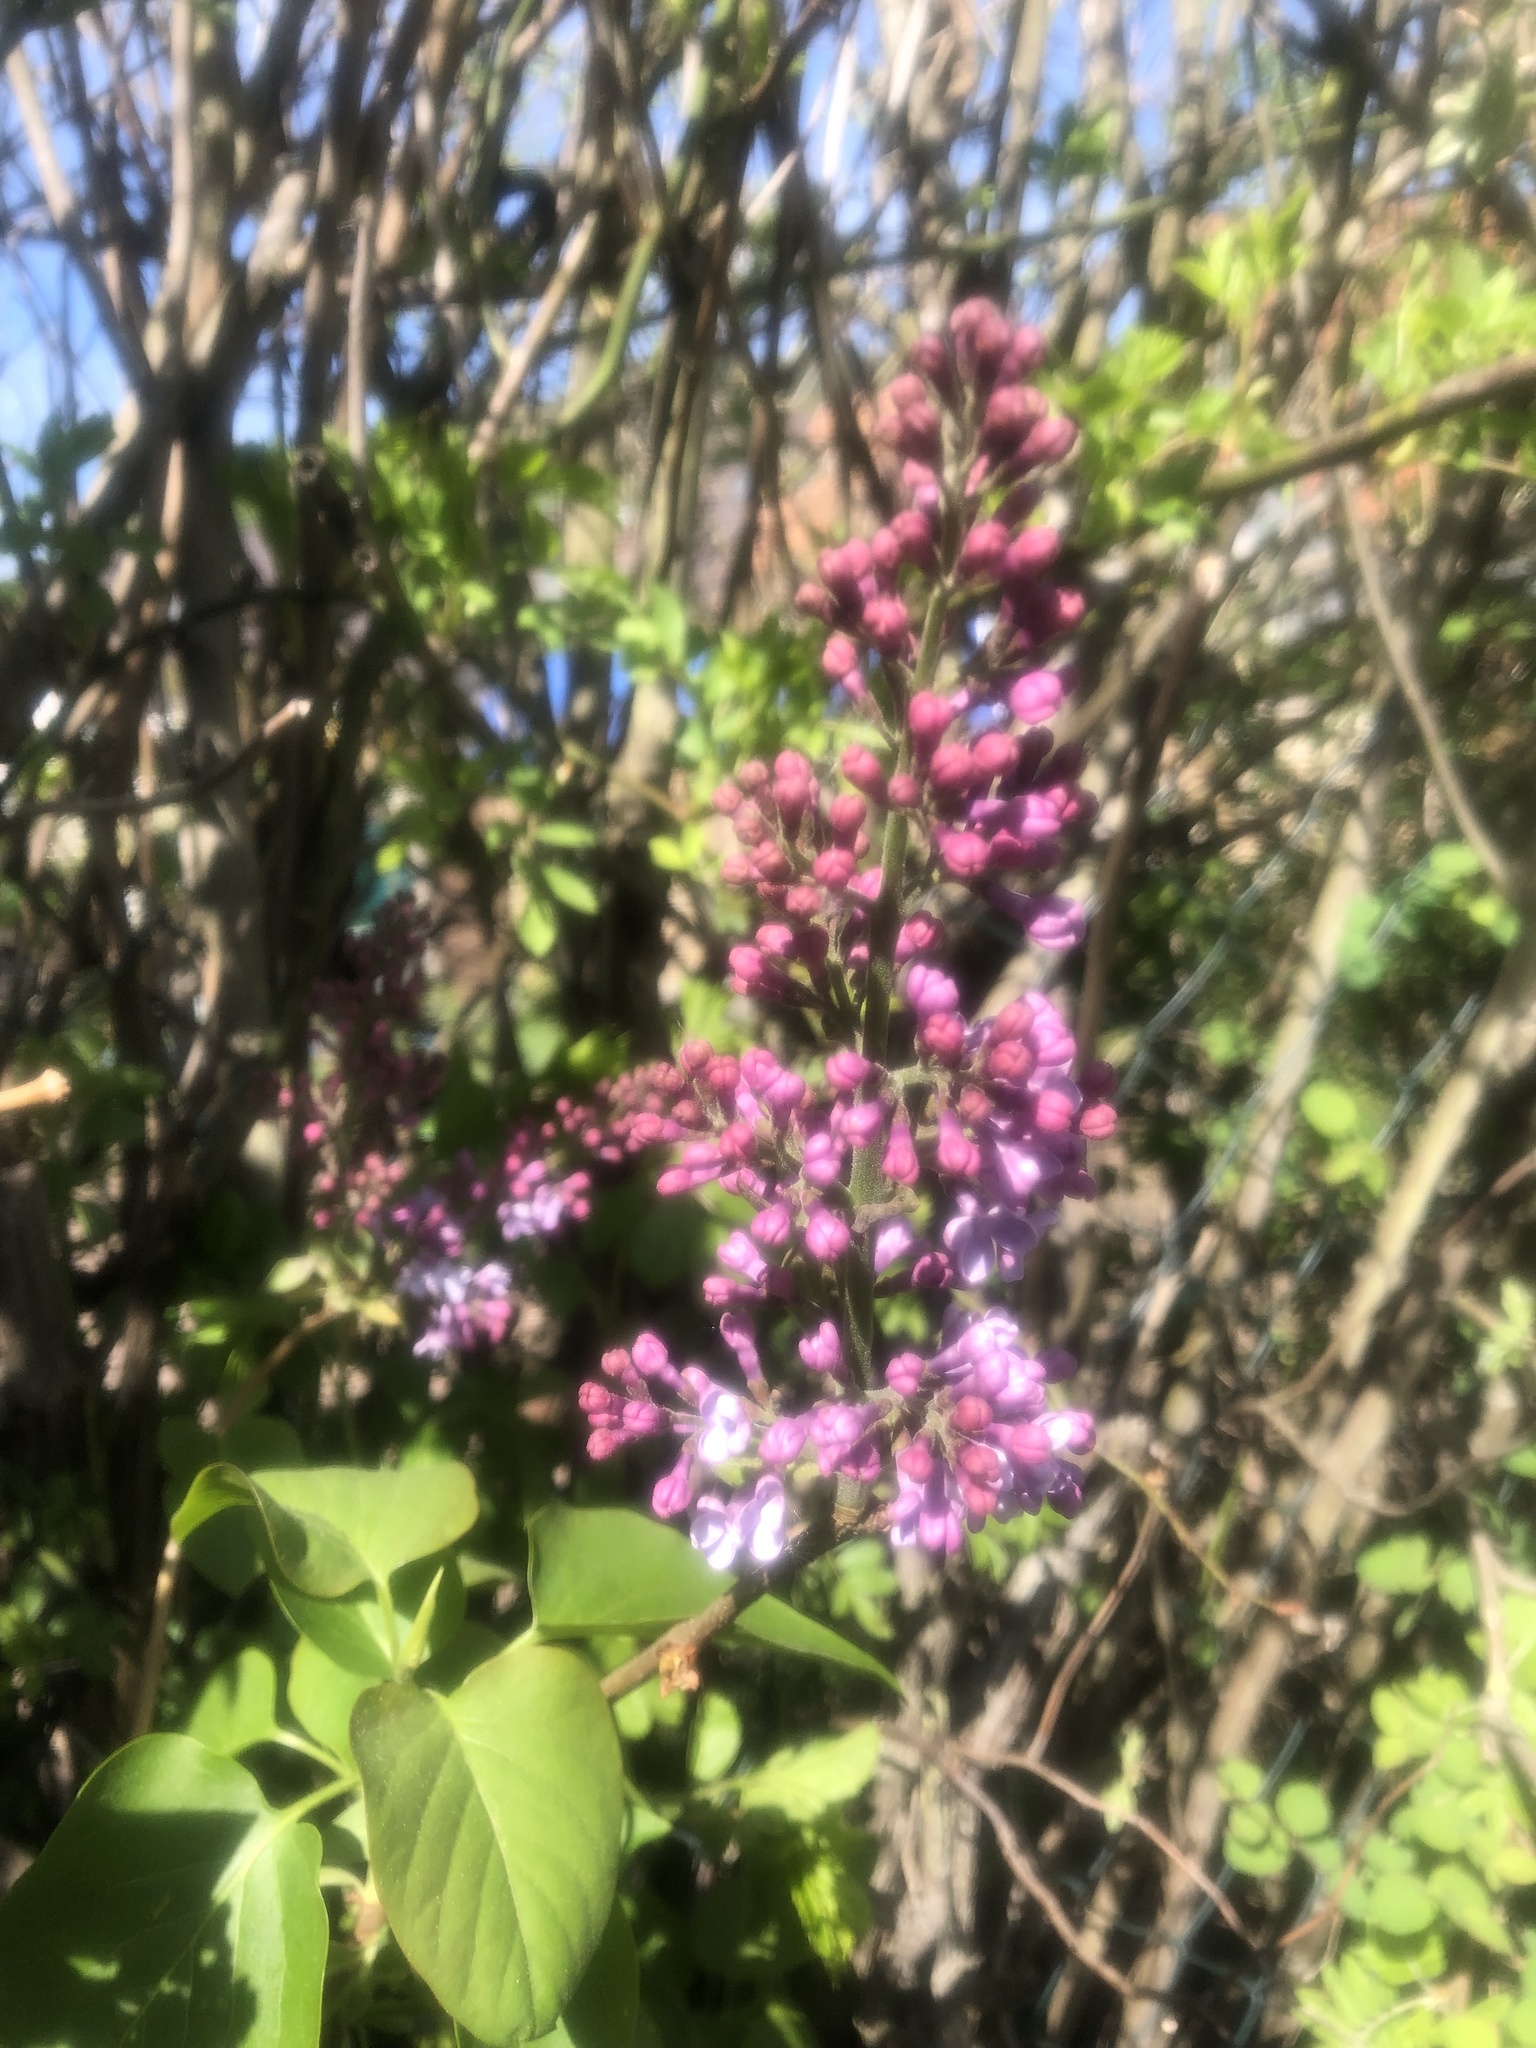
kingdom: Plantae
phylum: Tracheophyta
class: Magnoliopsida
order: Lamiales
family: Oleaceae
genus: Syringa
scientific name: Syringa vulgaris
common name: Common lilac
